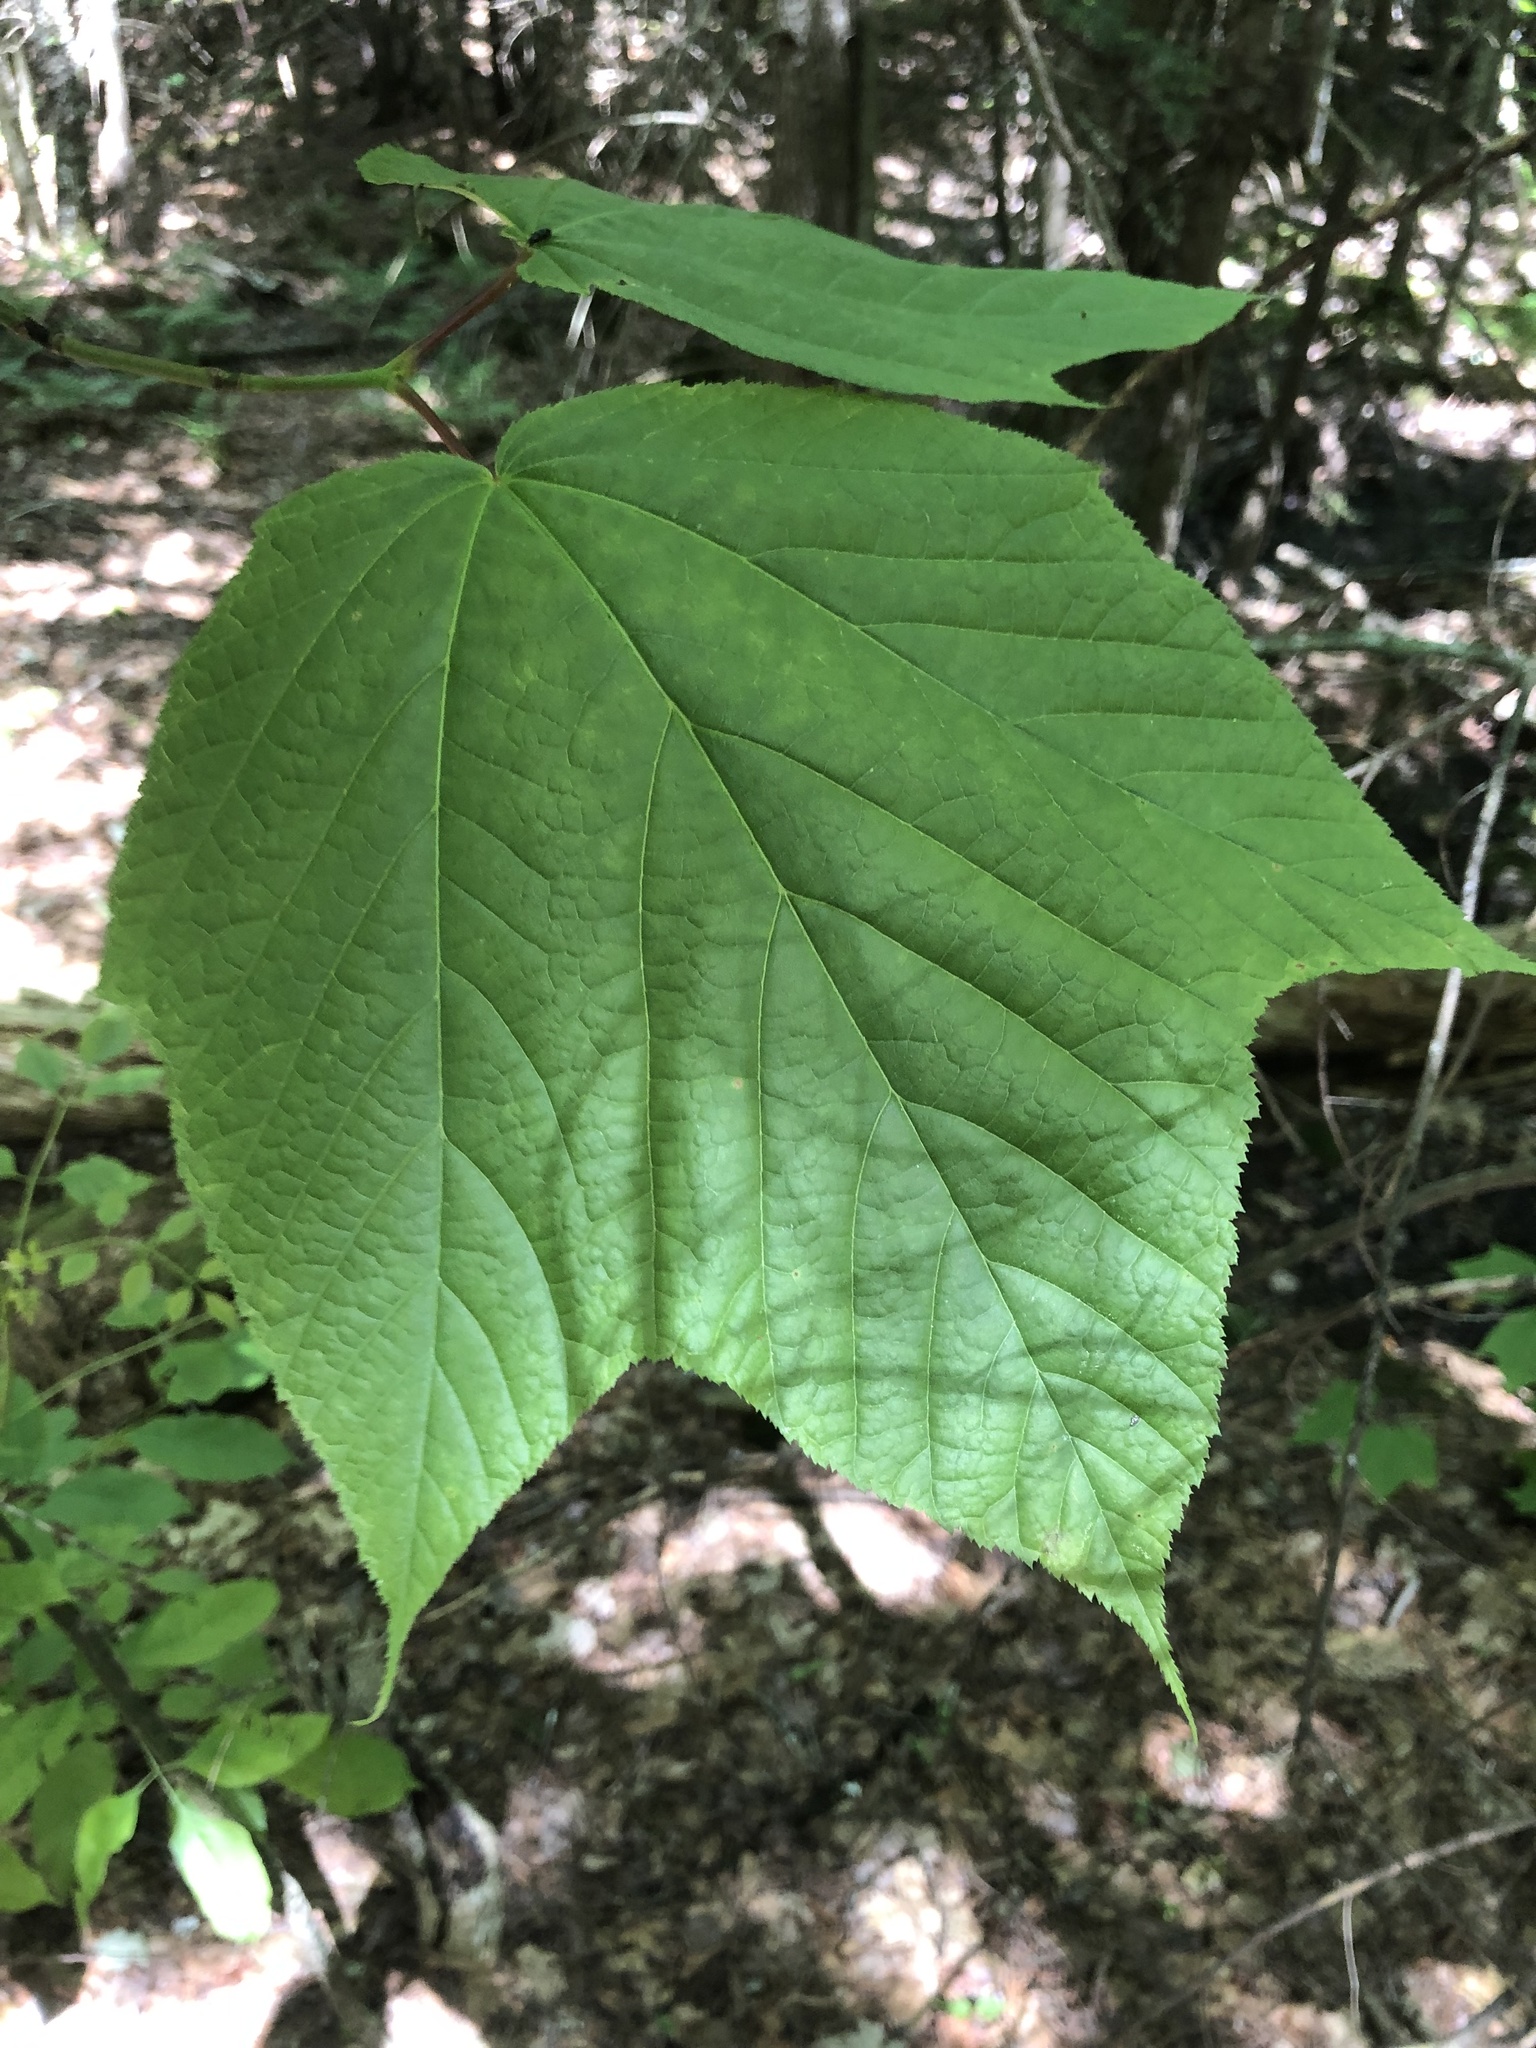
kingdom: Plantae
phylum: Tracheophyta
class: Magnoliopsida
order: Sapindales
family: Sapindaceae
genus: Acer
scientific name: Acer pensylvanicum
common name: Moosewood
